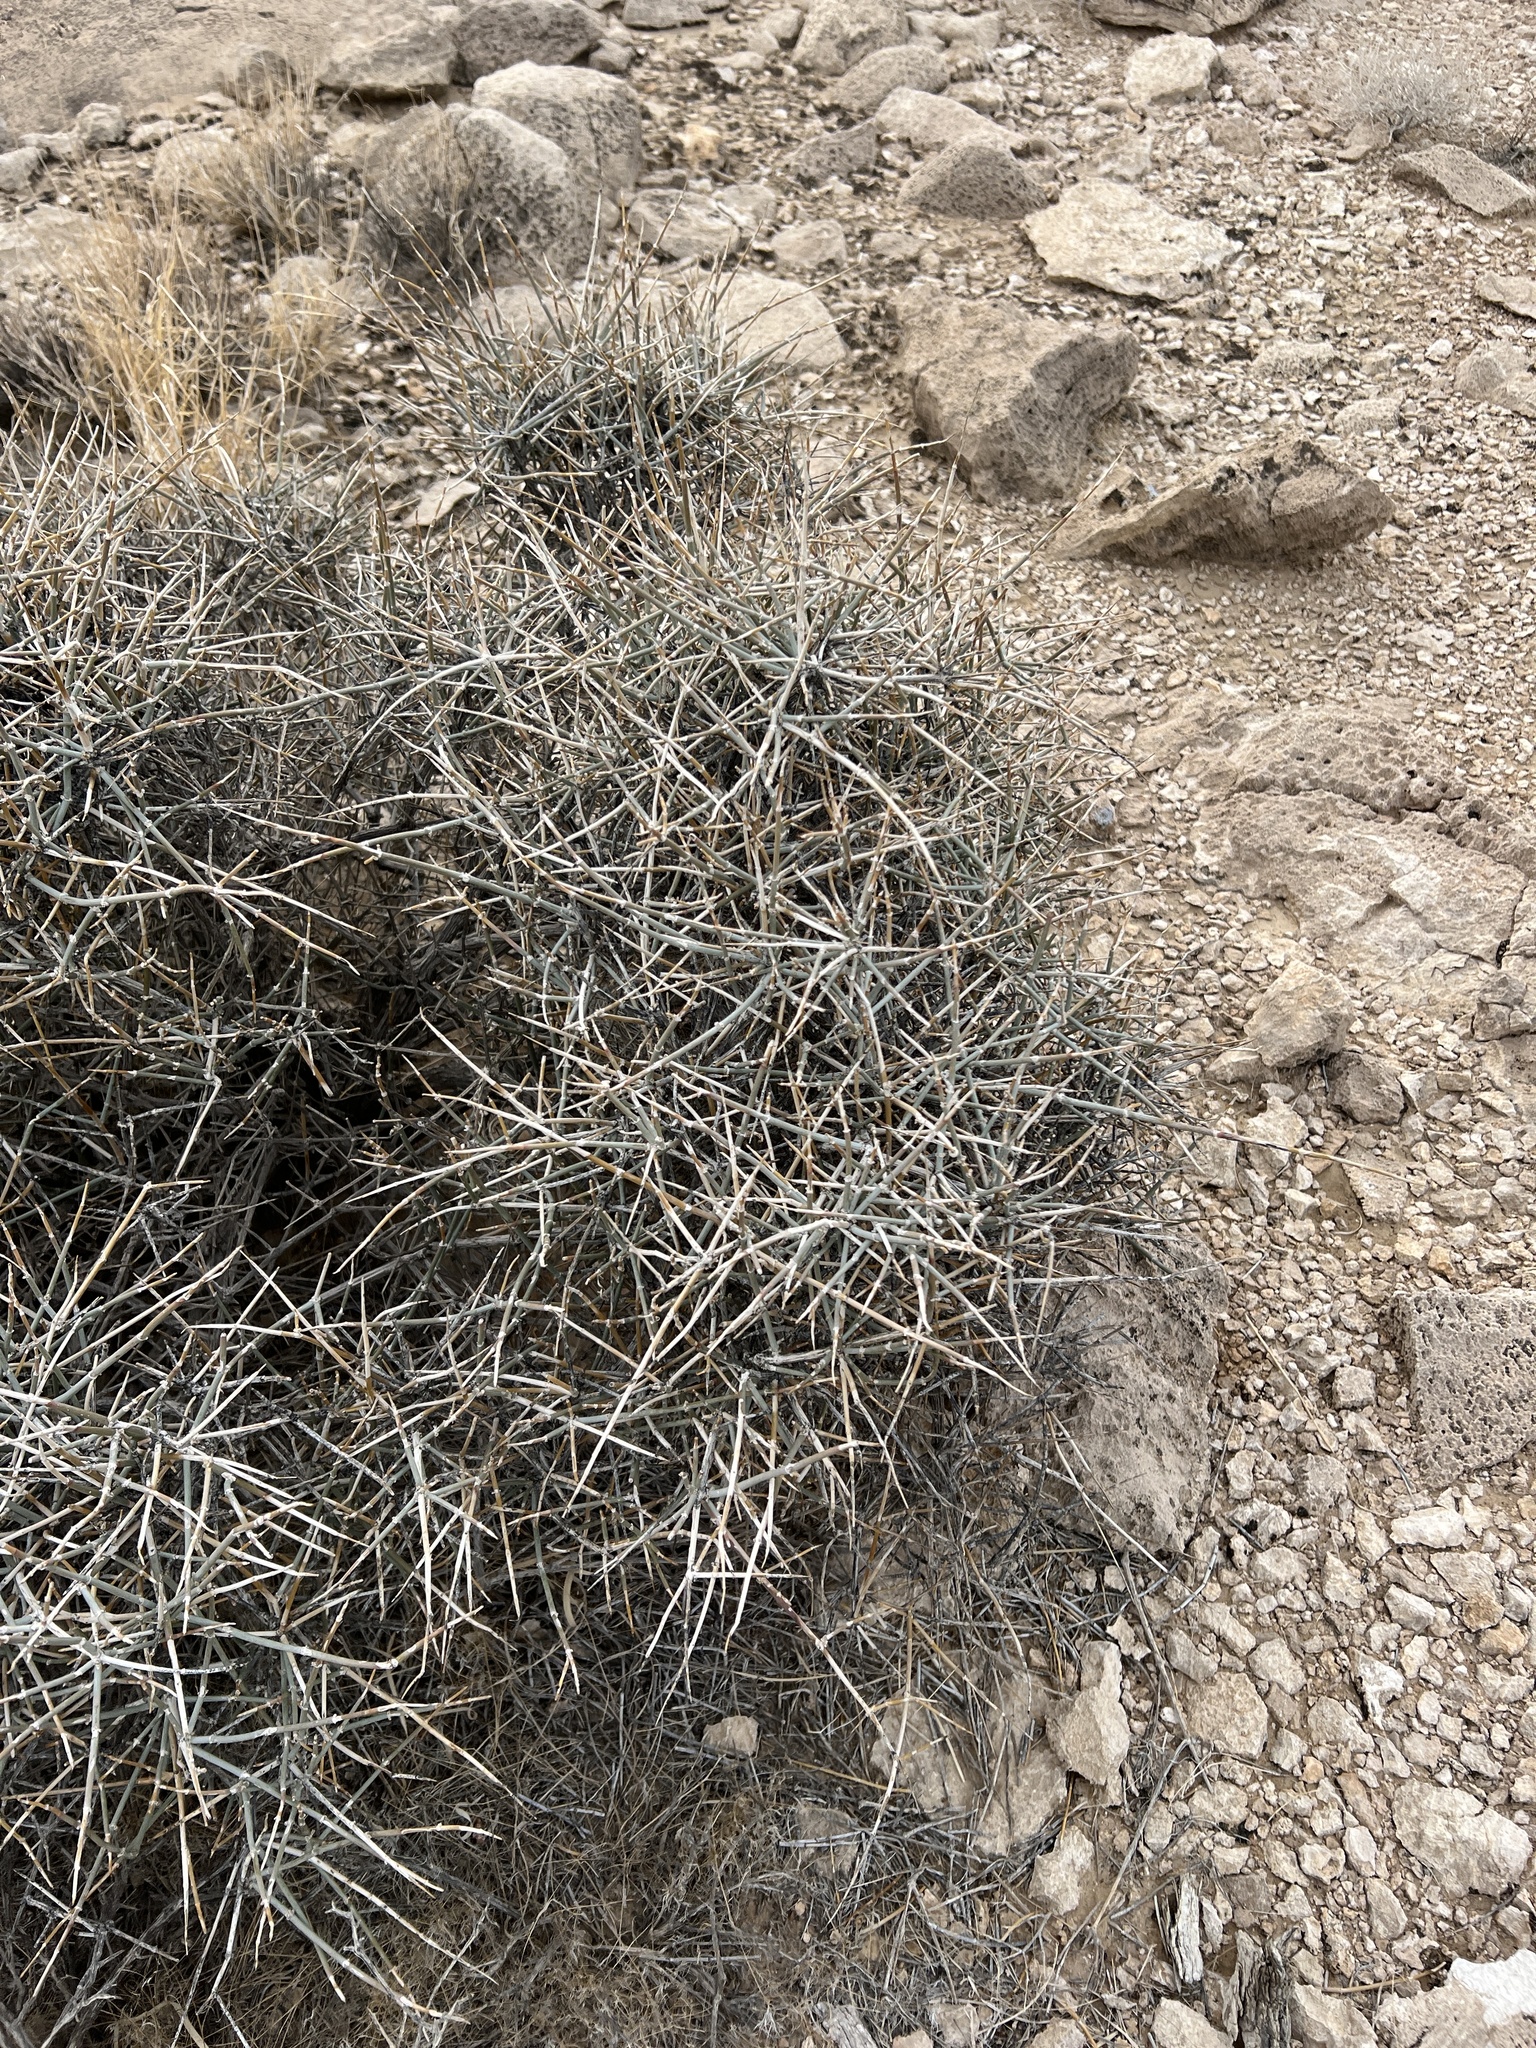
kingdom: Plantae
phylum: Tracheophyta
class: Gnetopsida
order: Ephedrales
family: Ephedraceae
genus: Ephedra
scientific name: Ephedra nevadensis
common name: Gray ephedra
